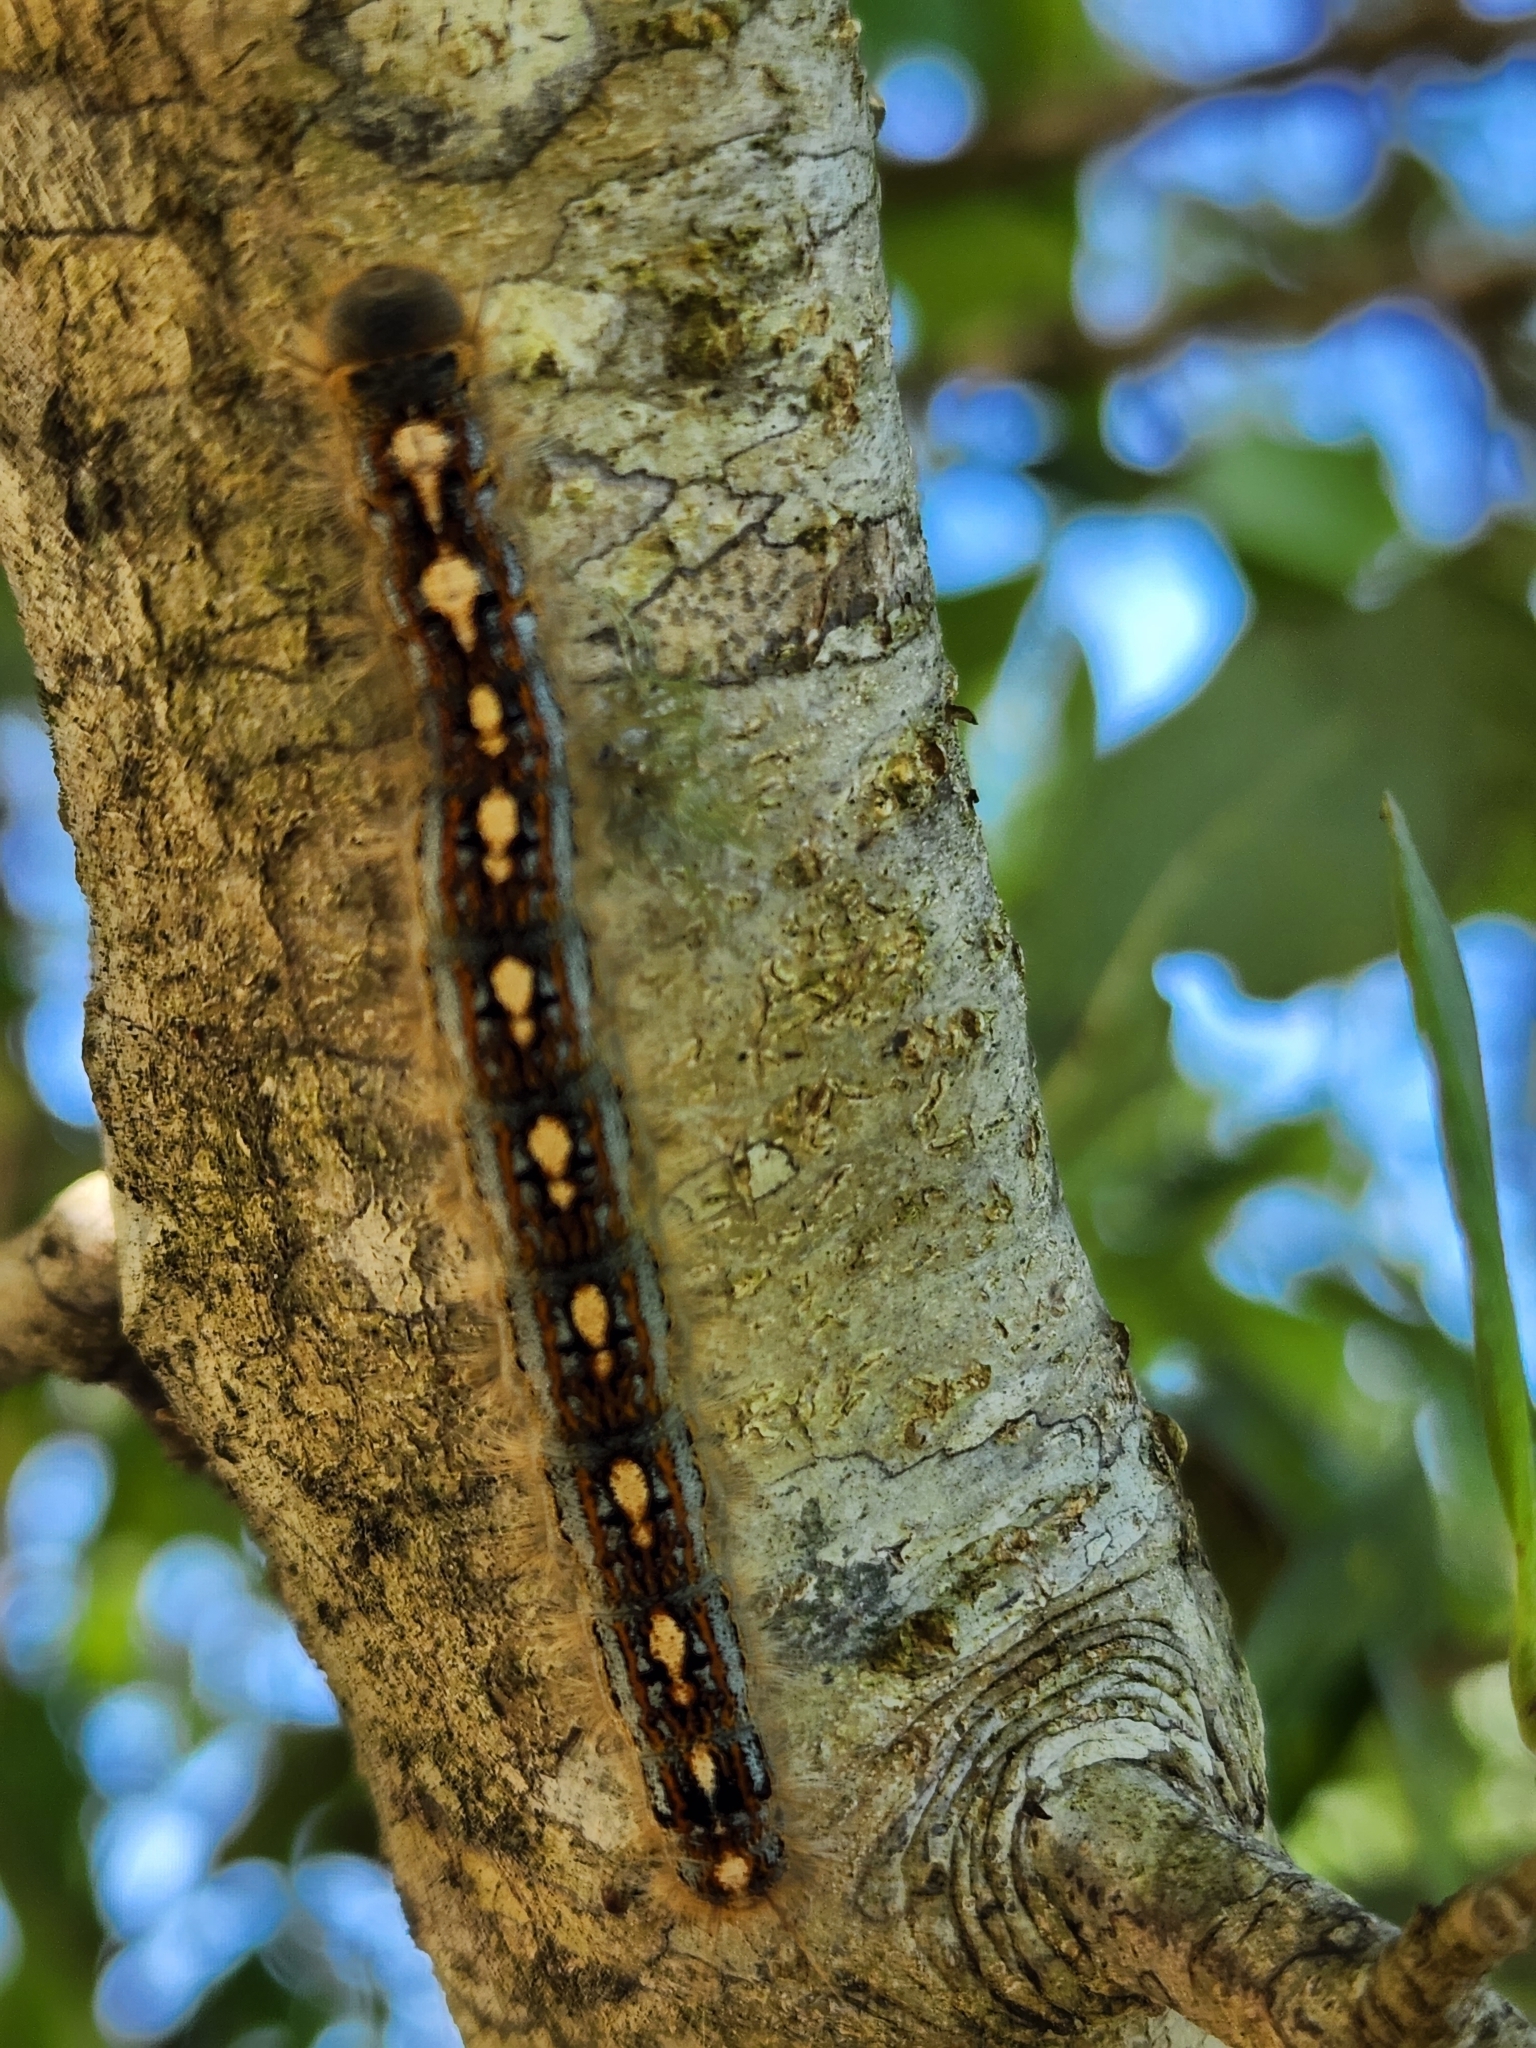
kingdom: Animalia
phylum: Arthropoda
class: Insecta
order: Lepidoptera
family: Lasiocampidae
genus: Malacosoma
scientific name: Malacosoma disstria
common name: Forest tent caterpillar
